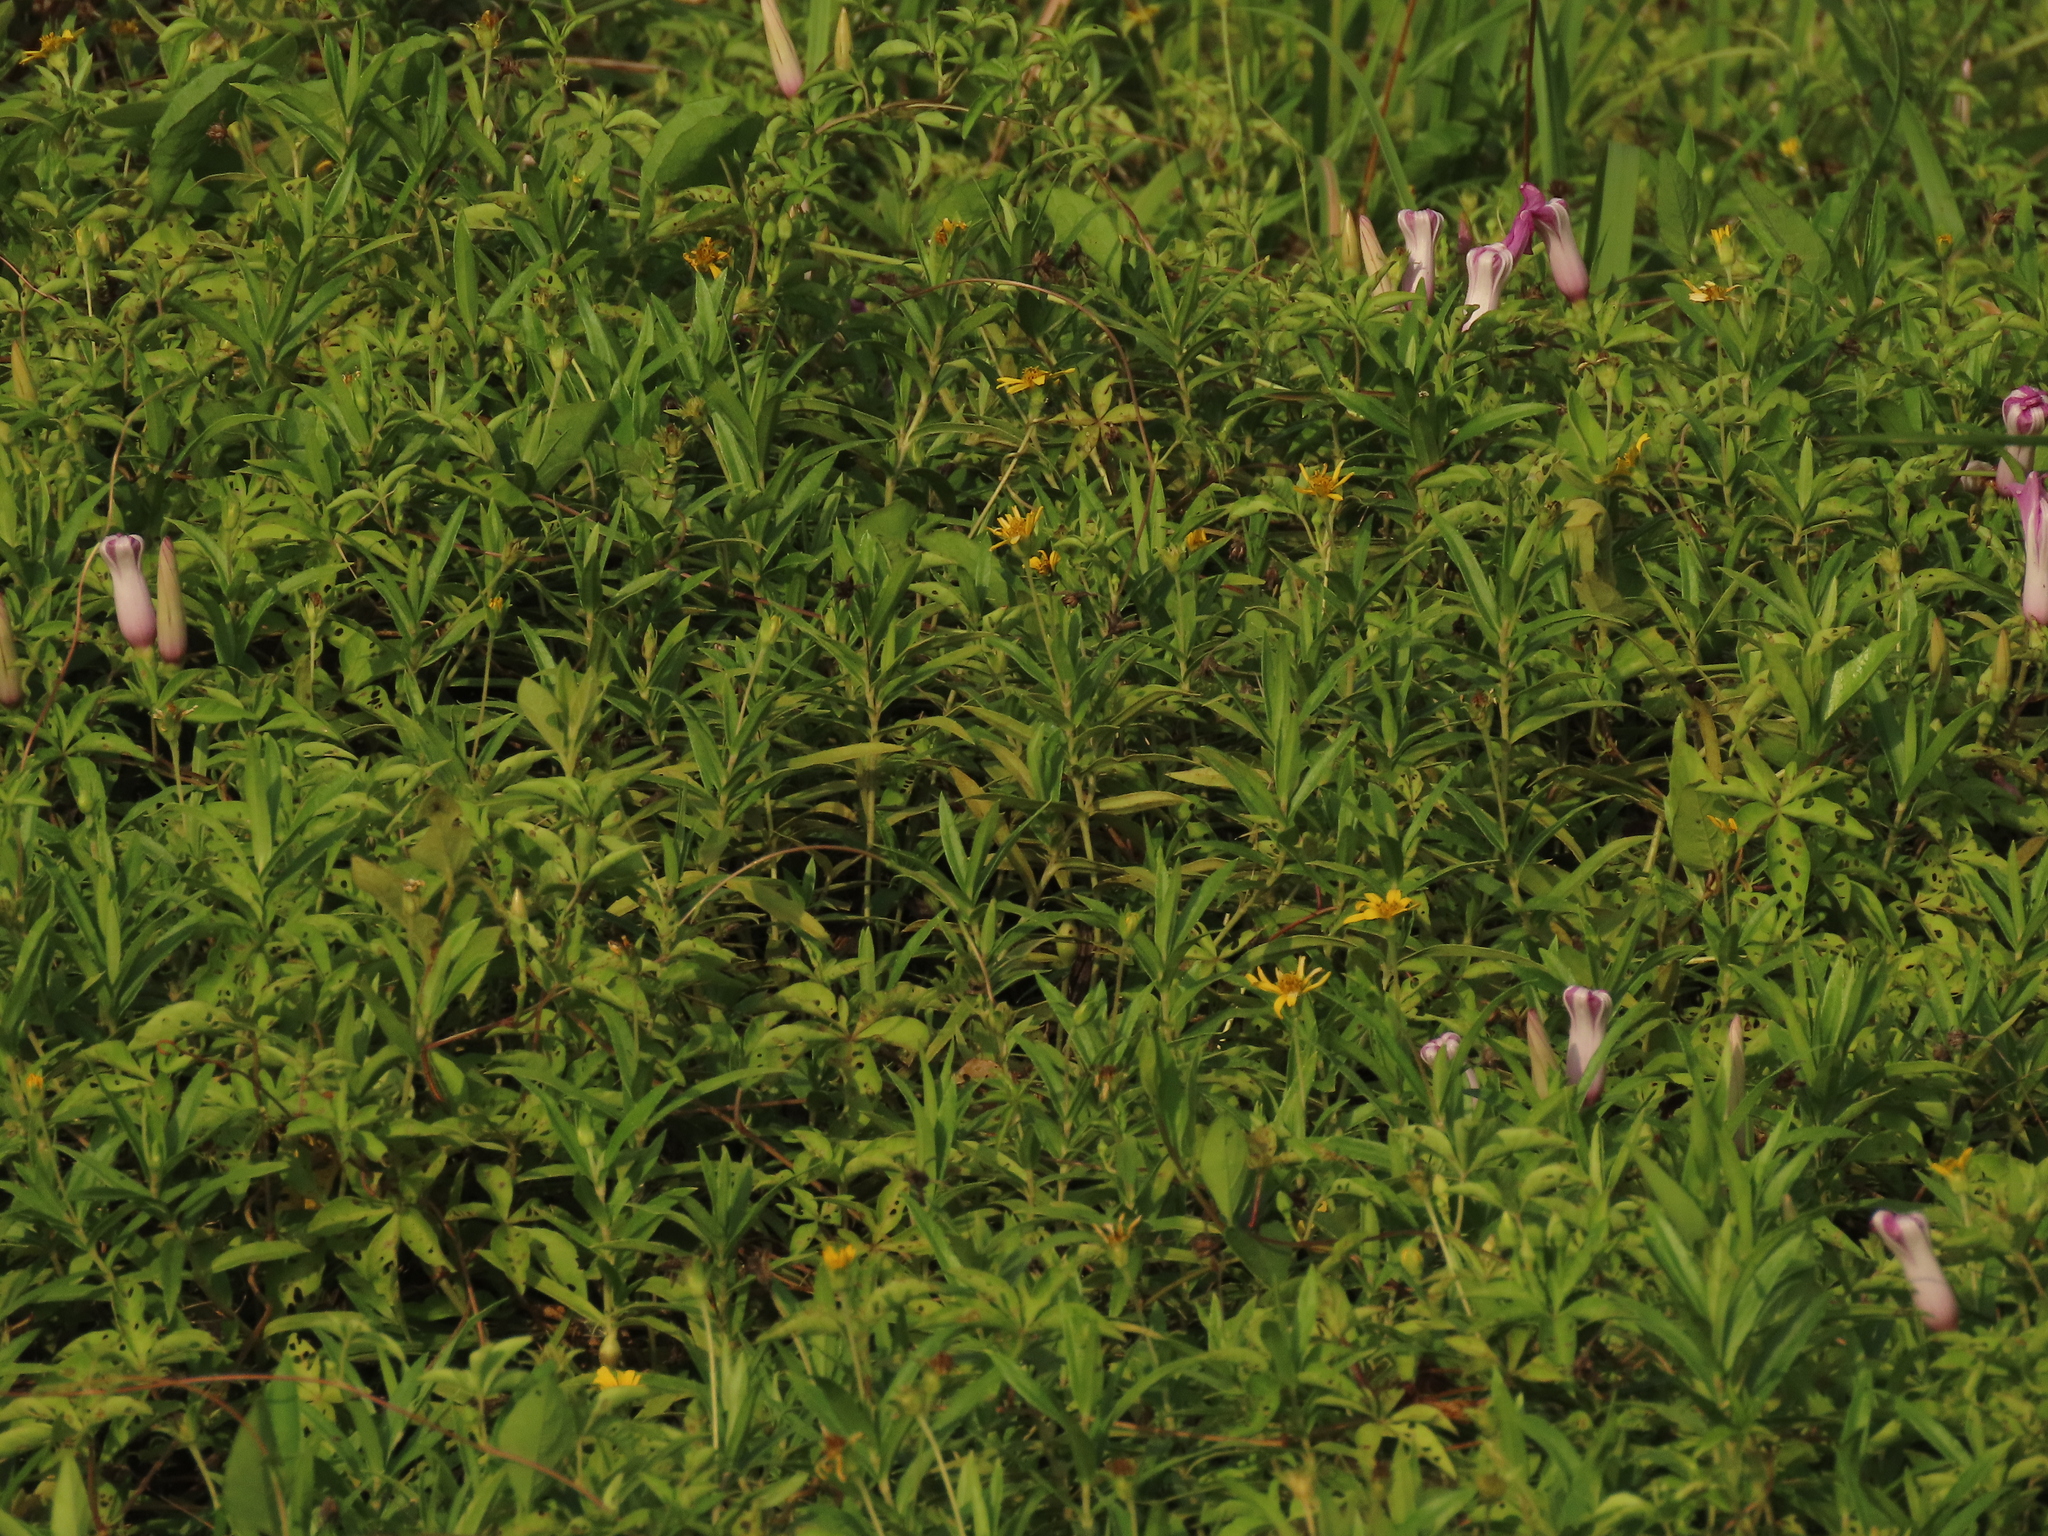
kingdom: Plantae
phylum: Tracheophyta
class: Magnoliopsida
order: Solanales
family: Convolvulaceae
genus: Ipomoea
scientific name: Ipomoea cairica
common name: Mile a minute vine
